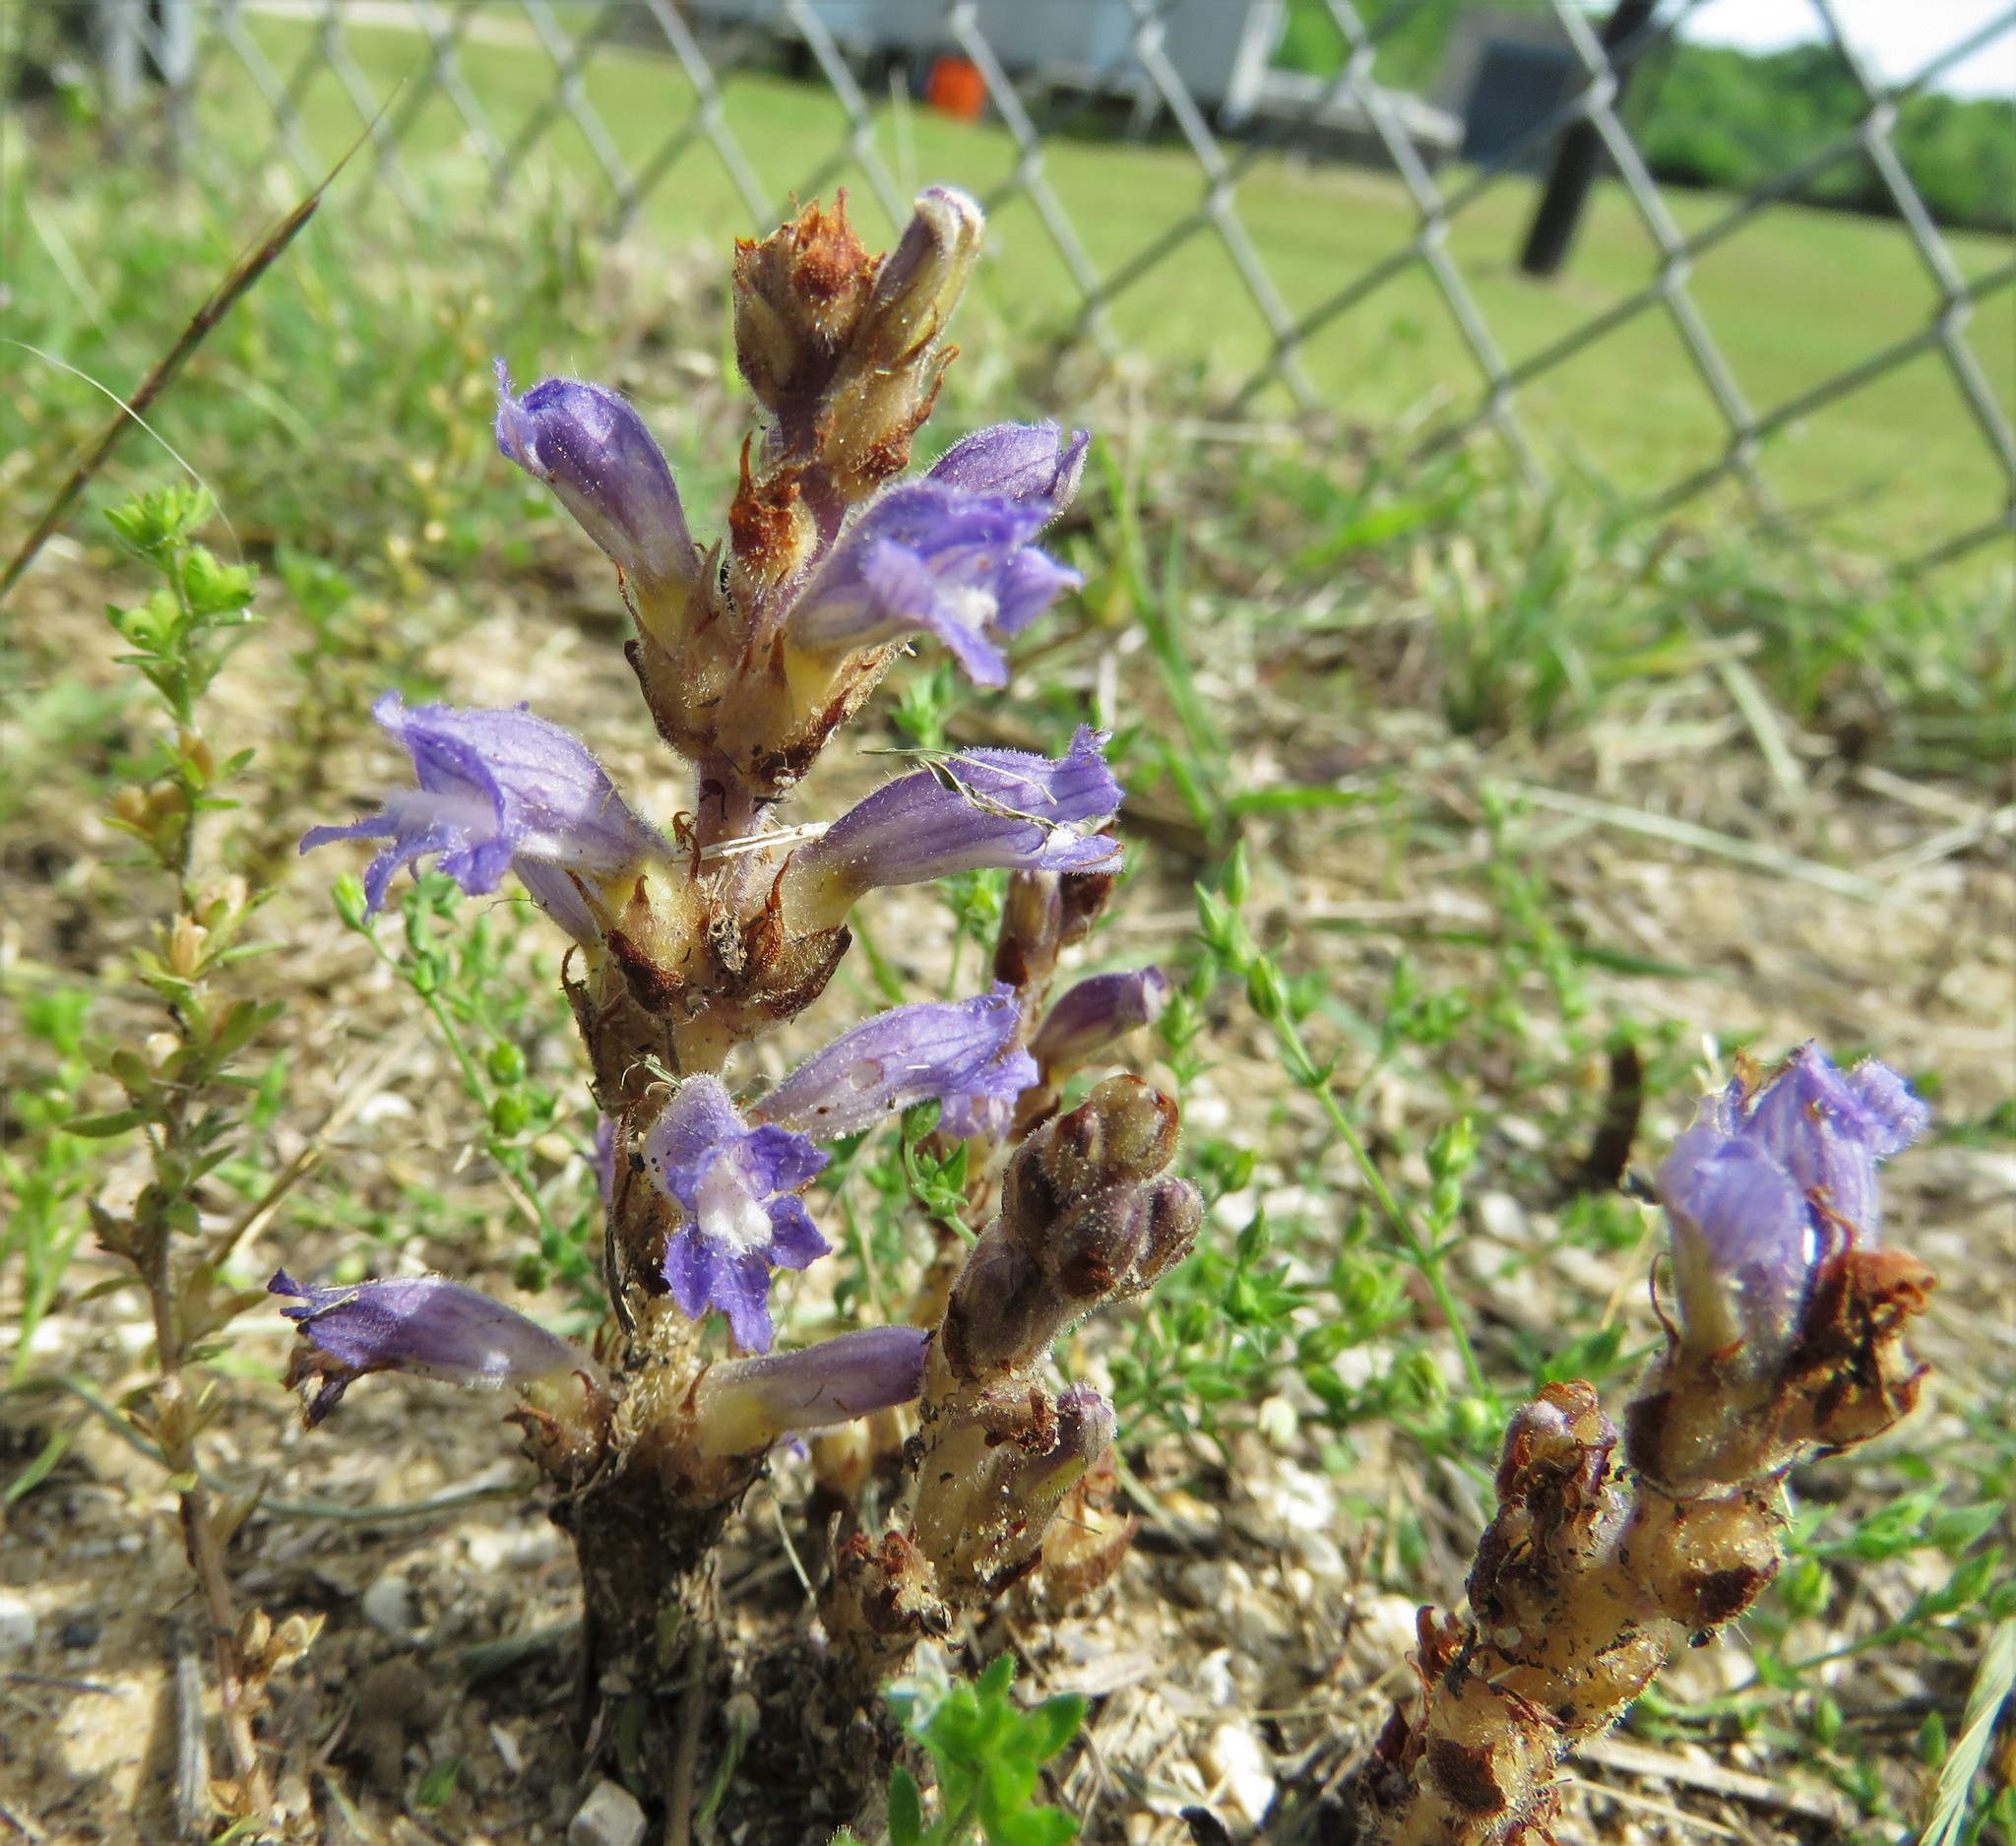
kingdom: Plantae
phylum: Tracheophyta
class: Magnoliopsida
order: Lamiales
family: Orobanchaceae
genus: Phelipanche
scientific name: Phelipanche mutelii
